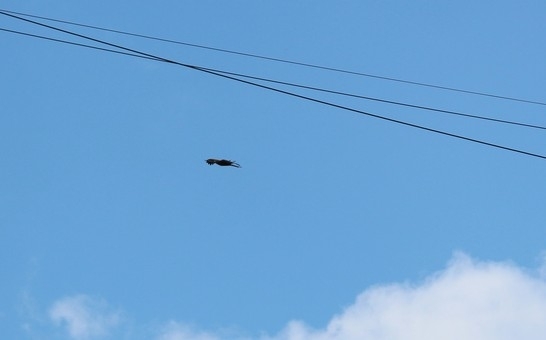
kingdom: Animalia
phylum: Chordata
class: Aves
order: Accipitriformes
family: Accipitridae
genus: Milvus
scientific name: Milvus migrans
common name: Black kite
